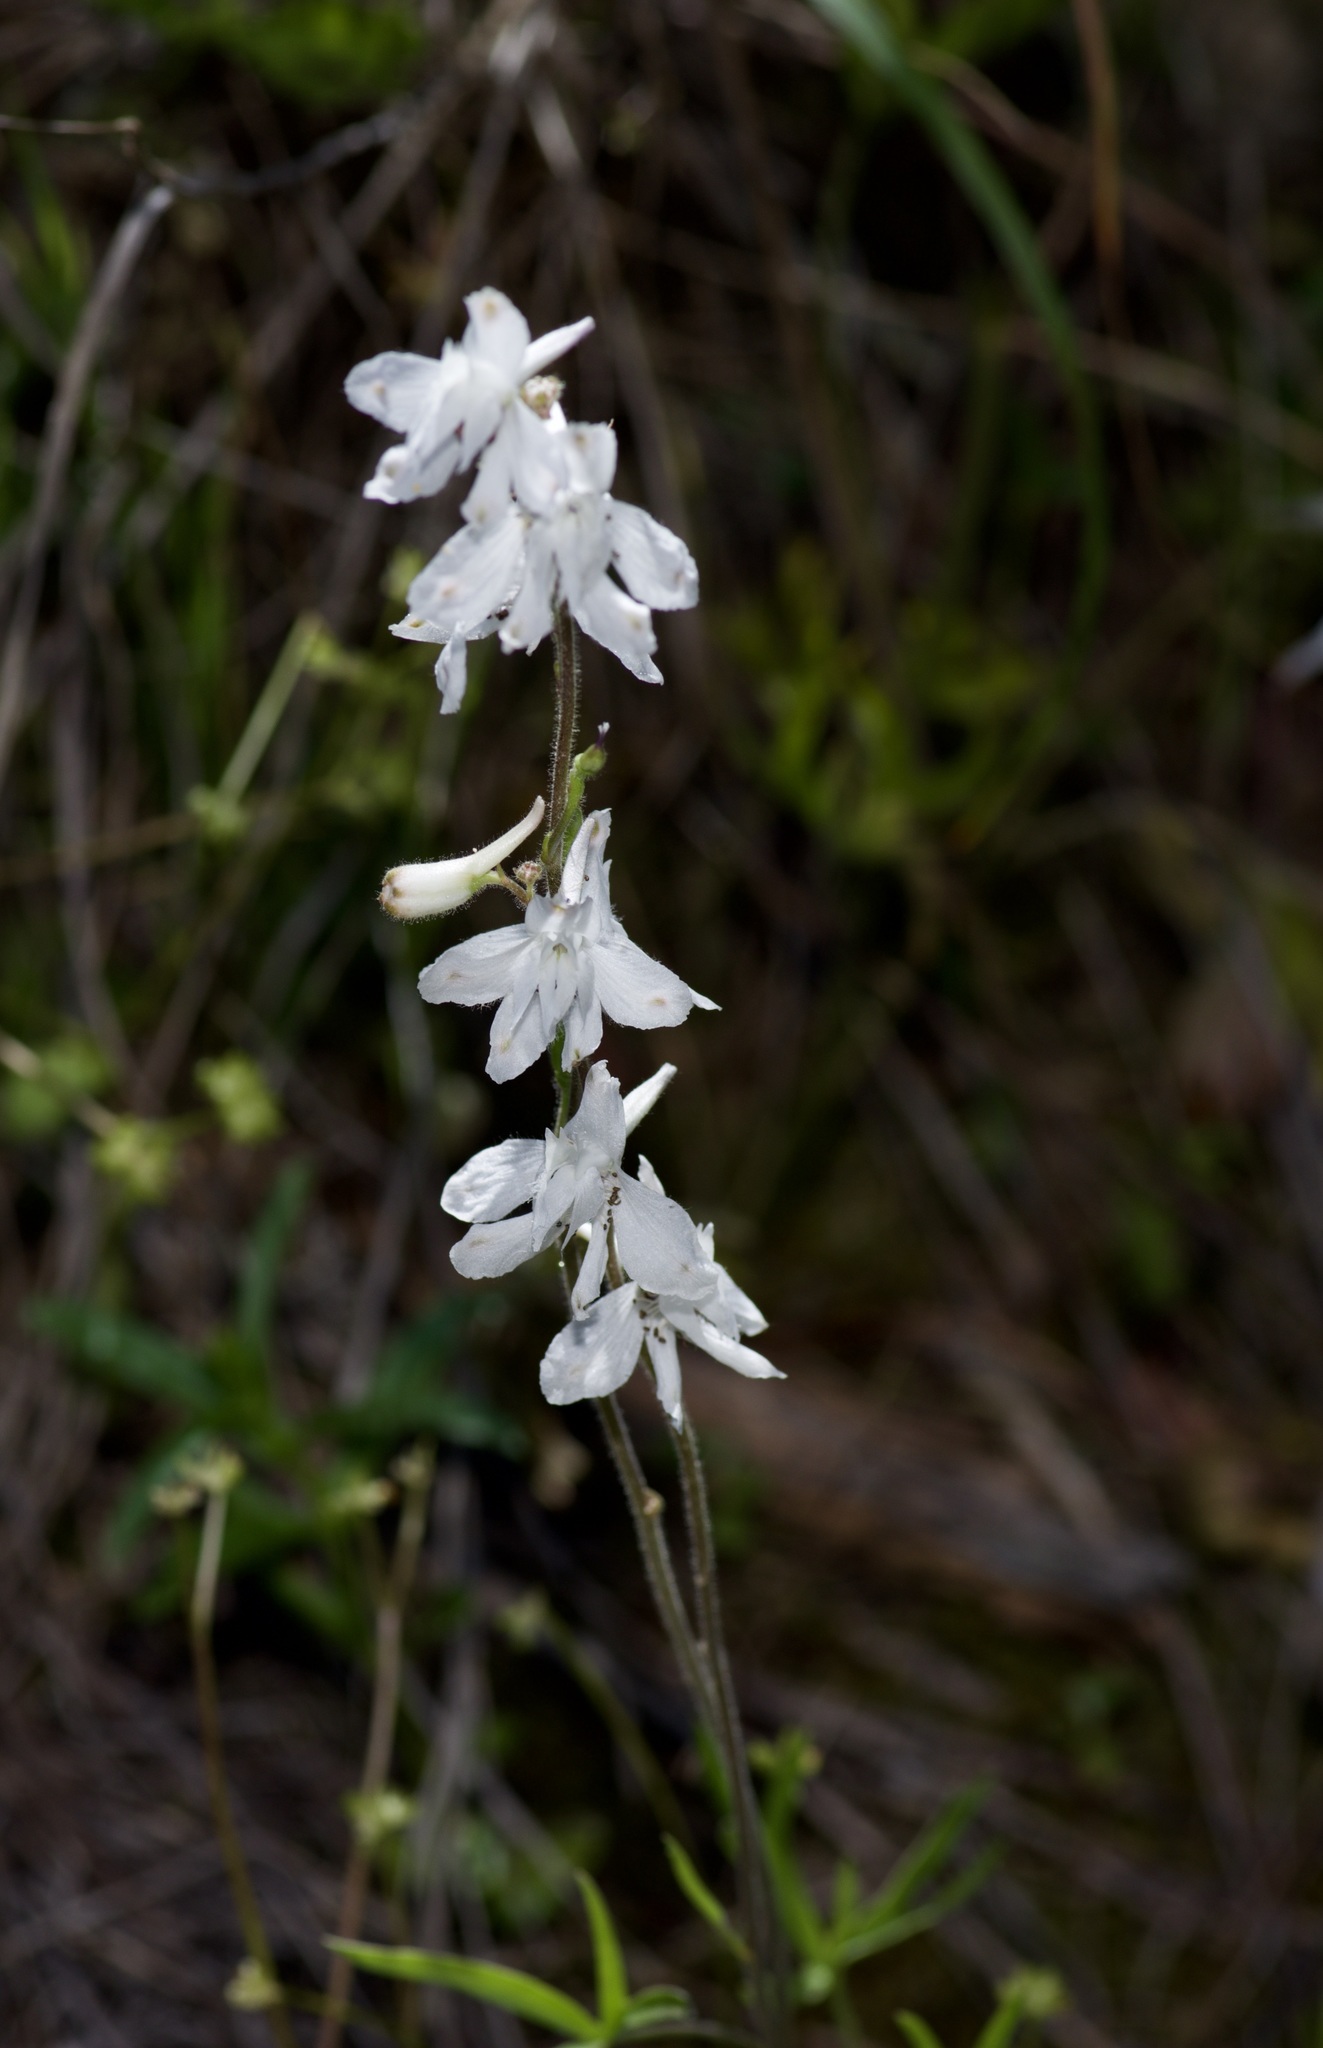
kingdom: Plantae
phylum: Tracheophyta
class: Magnoliopsida
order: Ranunculales
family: Ranunculaceae
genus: Delphinium
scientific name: Delphinium carolinianum
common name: Carolina larkspur
